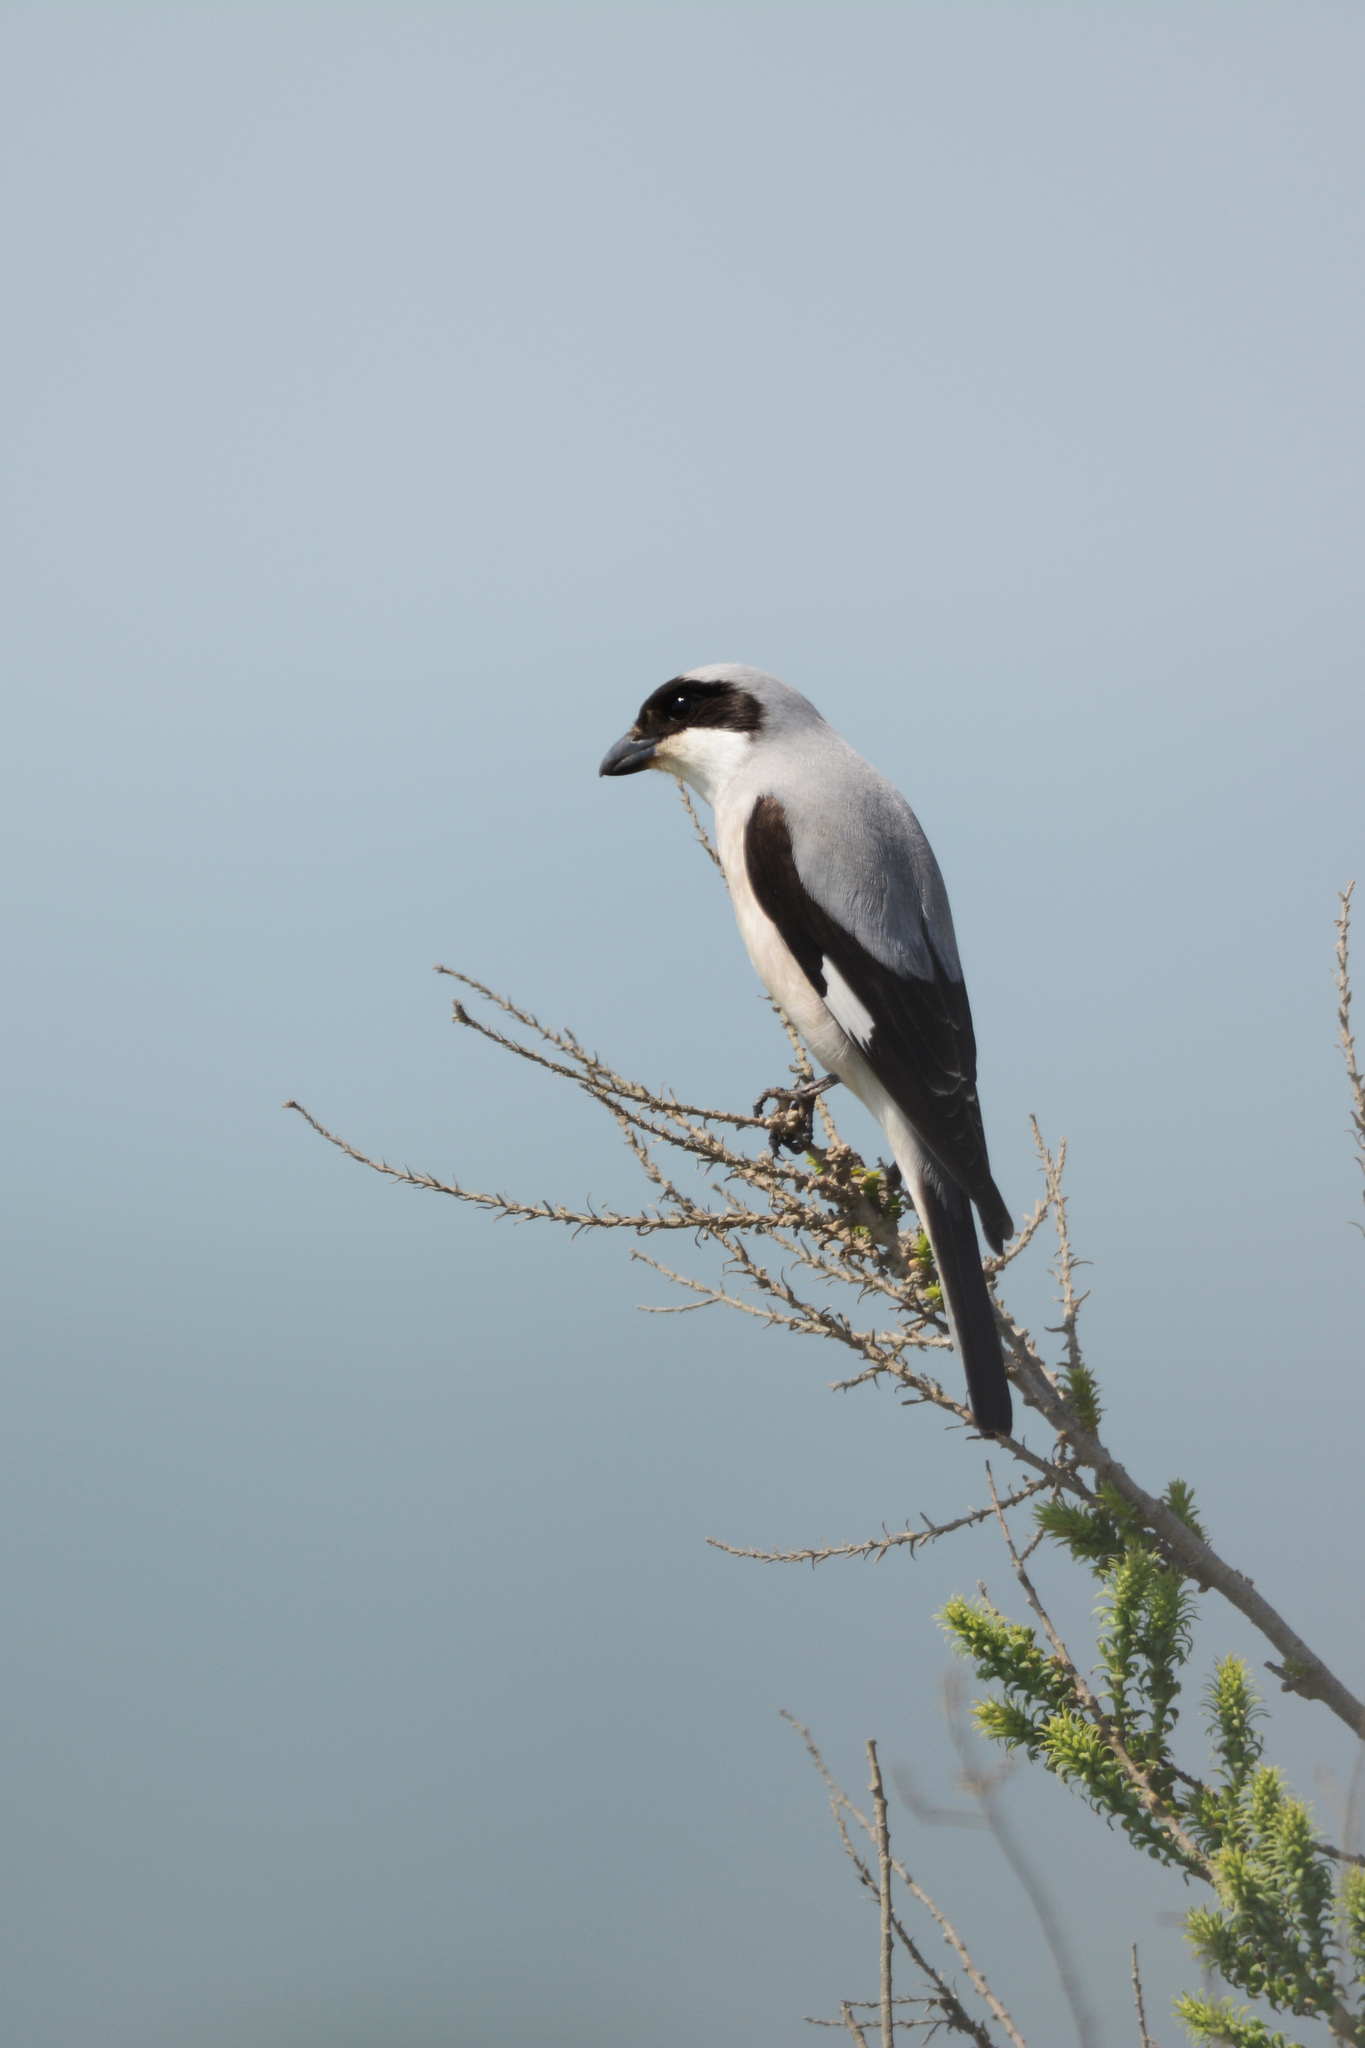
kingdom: Animalia
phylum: Chordata
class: Aves
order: Passeriformes
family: Laniidae
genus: Lanius
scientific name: Lanius minor
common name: Lesser grey shrike
